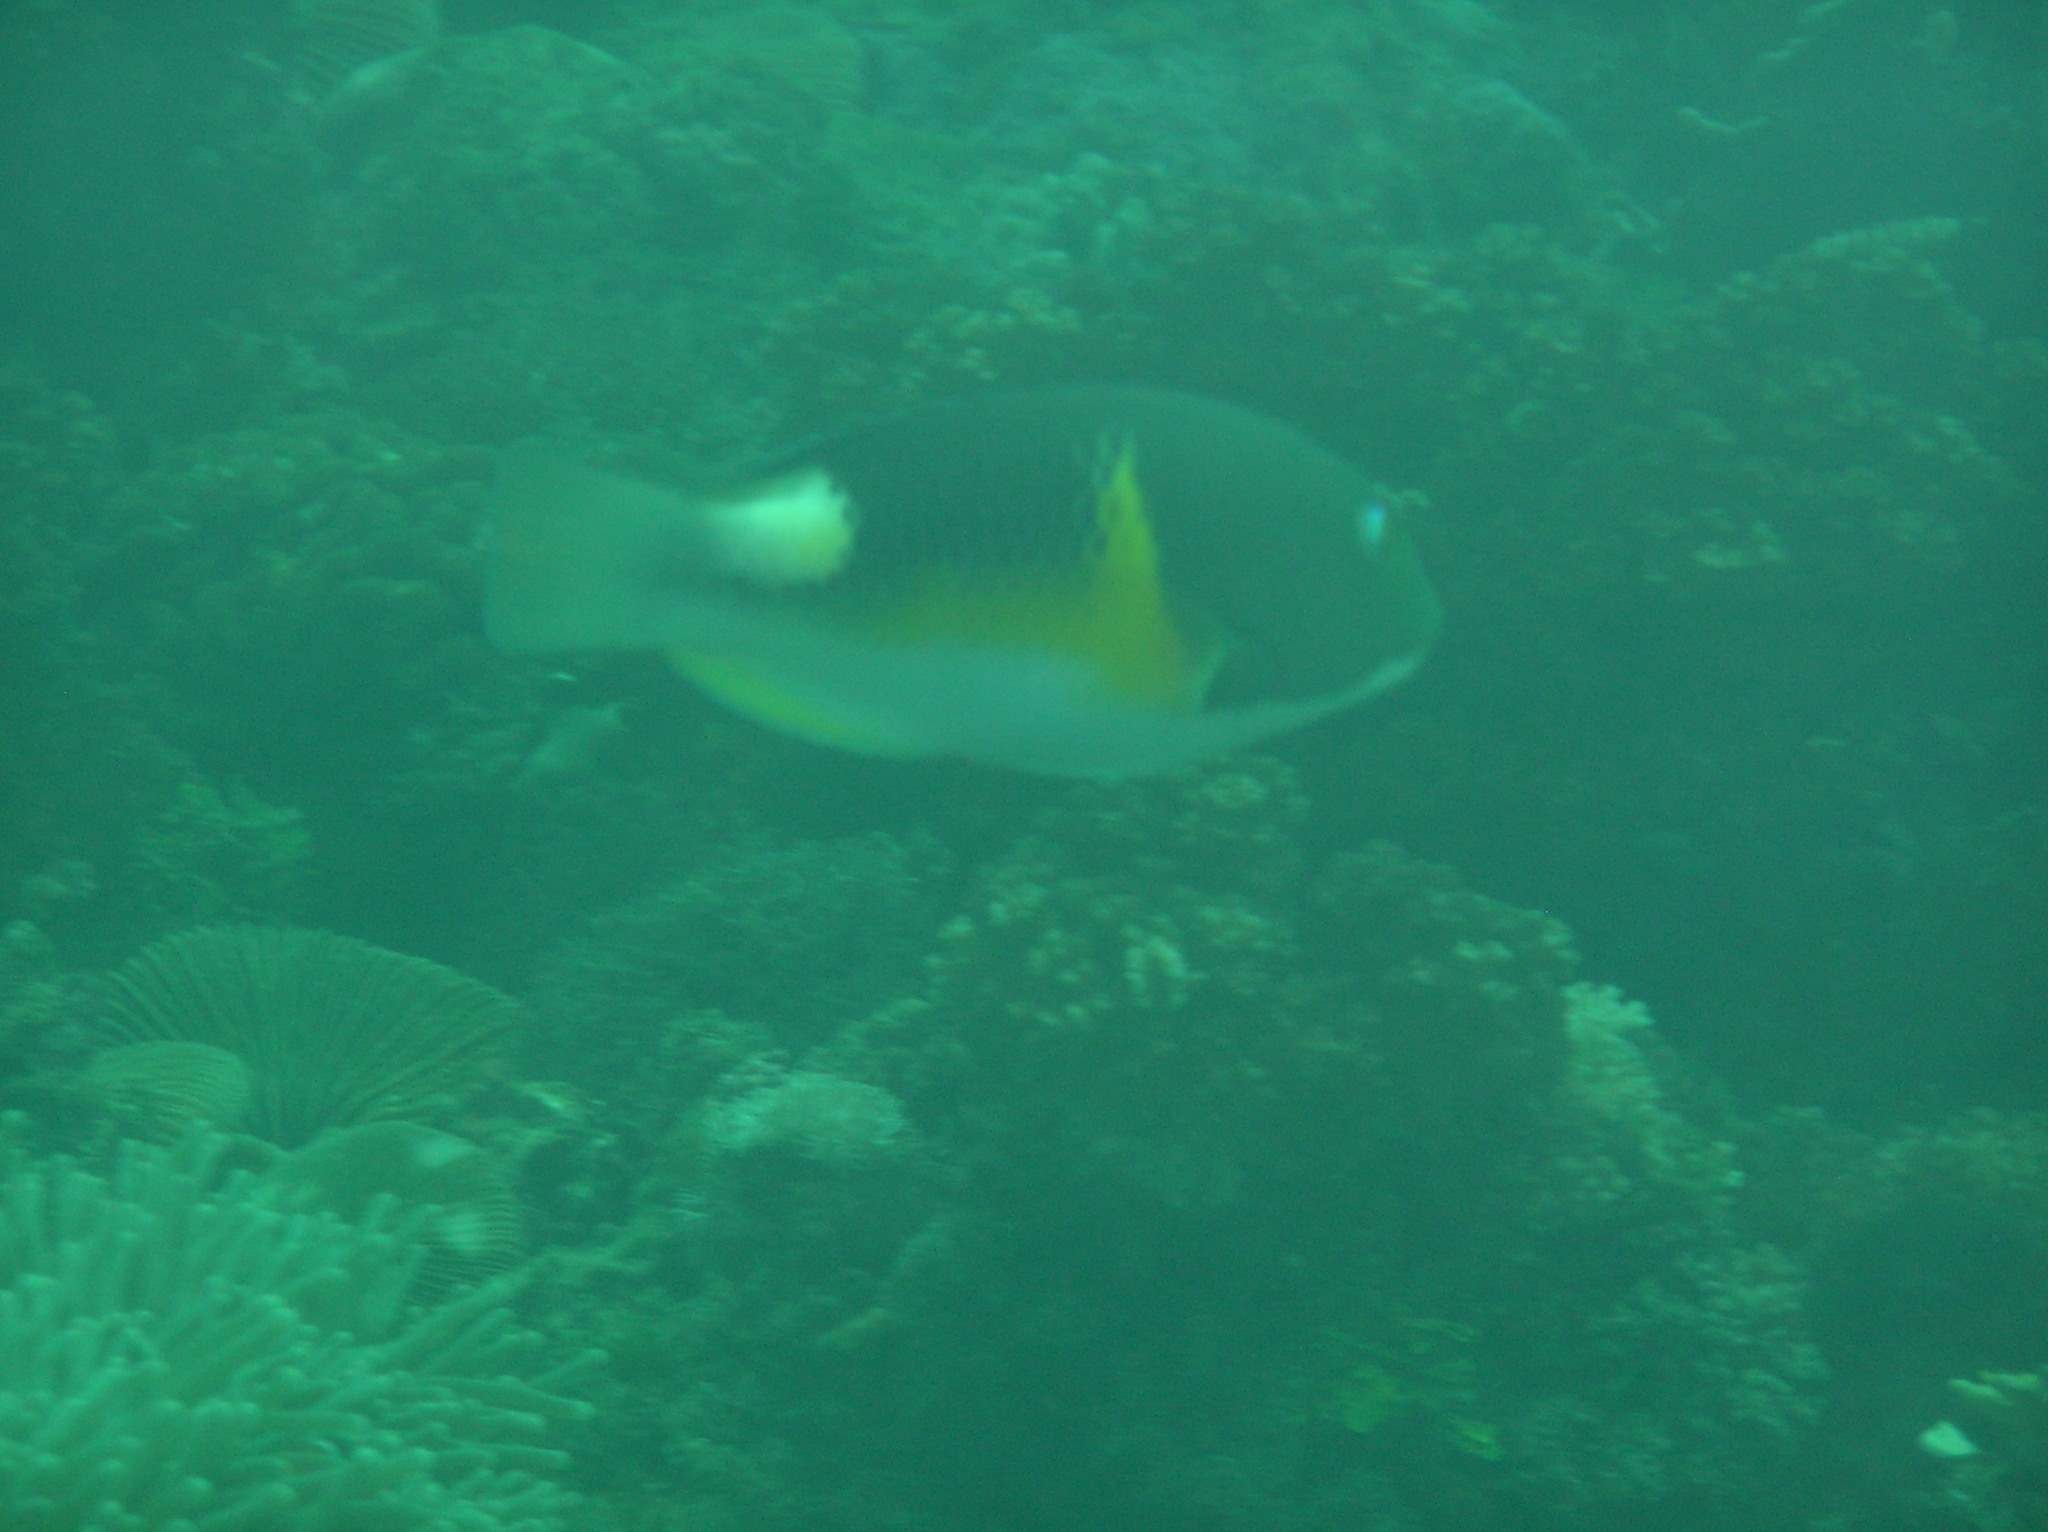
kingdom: Animalia
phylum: Chordata
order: Perciformes
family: Labridae
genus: Choerodon
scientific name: Choerodon anchorago
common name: Anchor tuskfish
